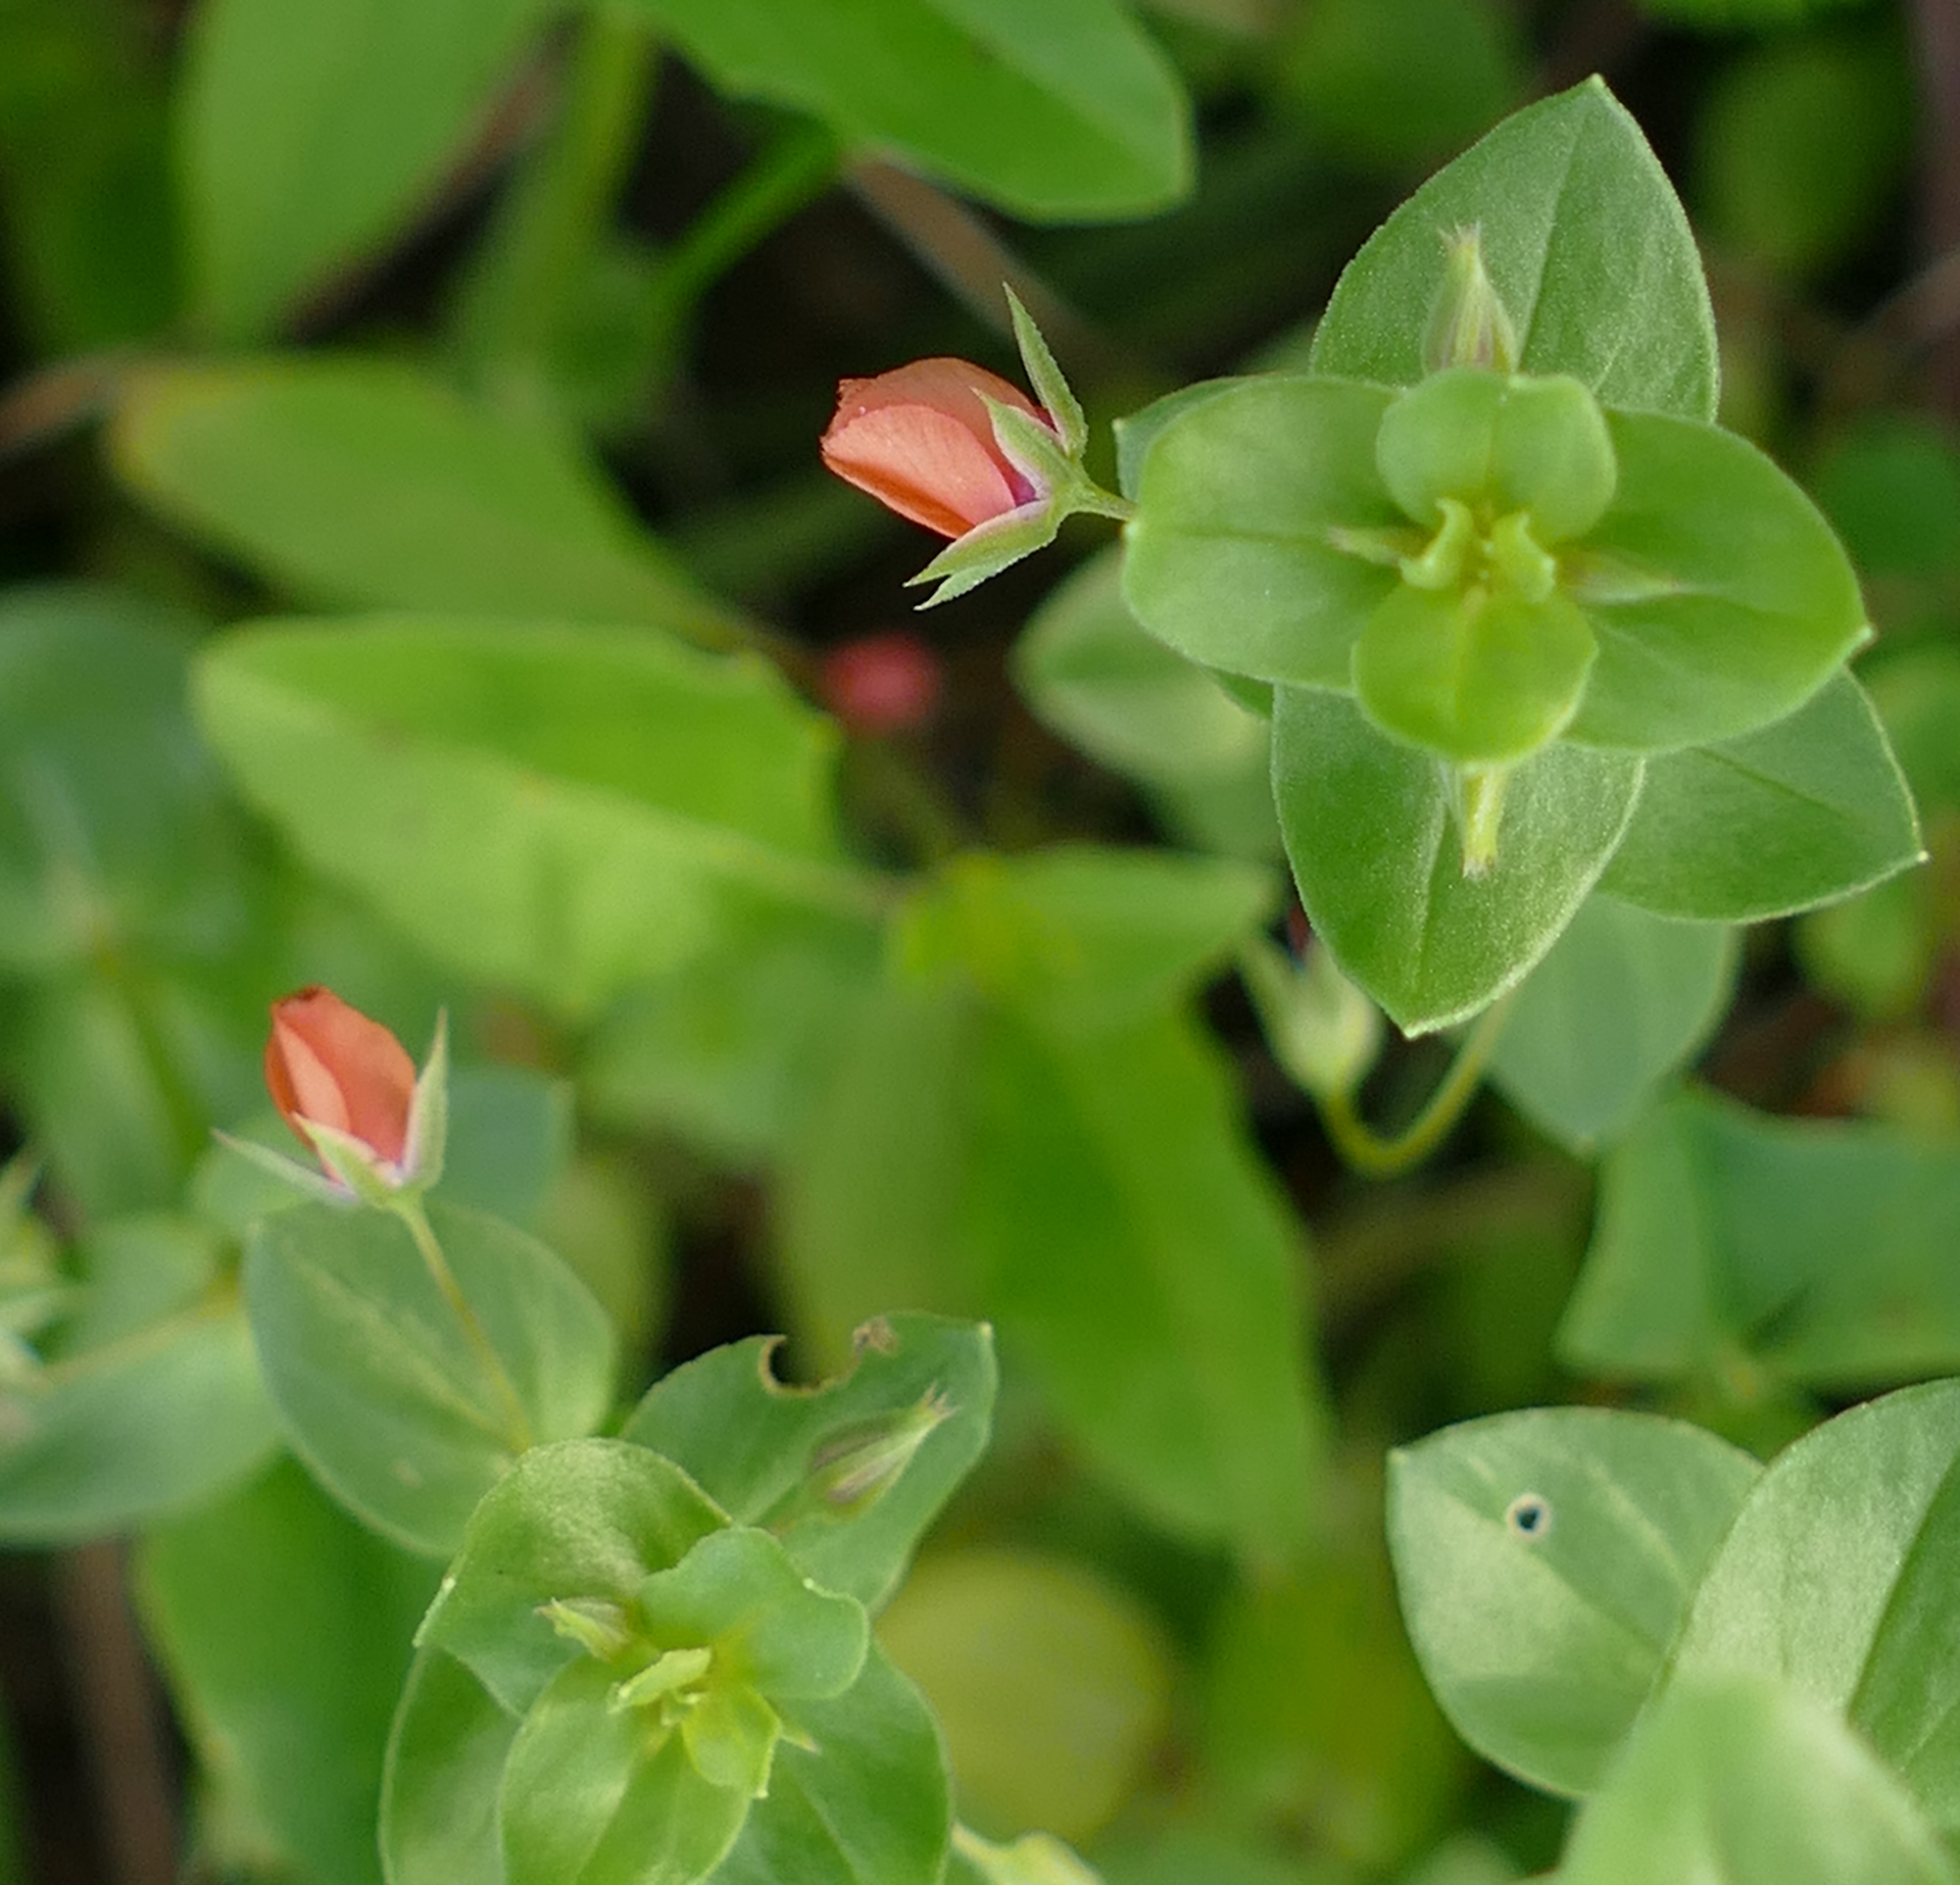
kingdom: Plantae
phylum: Tracheophyta
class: Magnoliopsida
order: Ericales
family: Primulaceae
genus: Lysimachia
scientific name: Lysimachia arvensis
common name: Scarlet pimpernel
